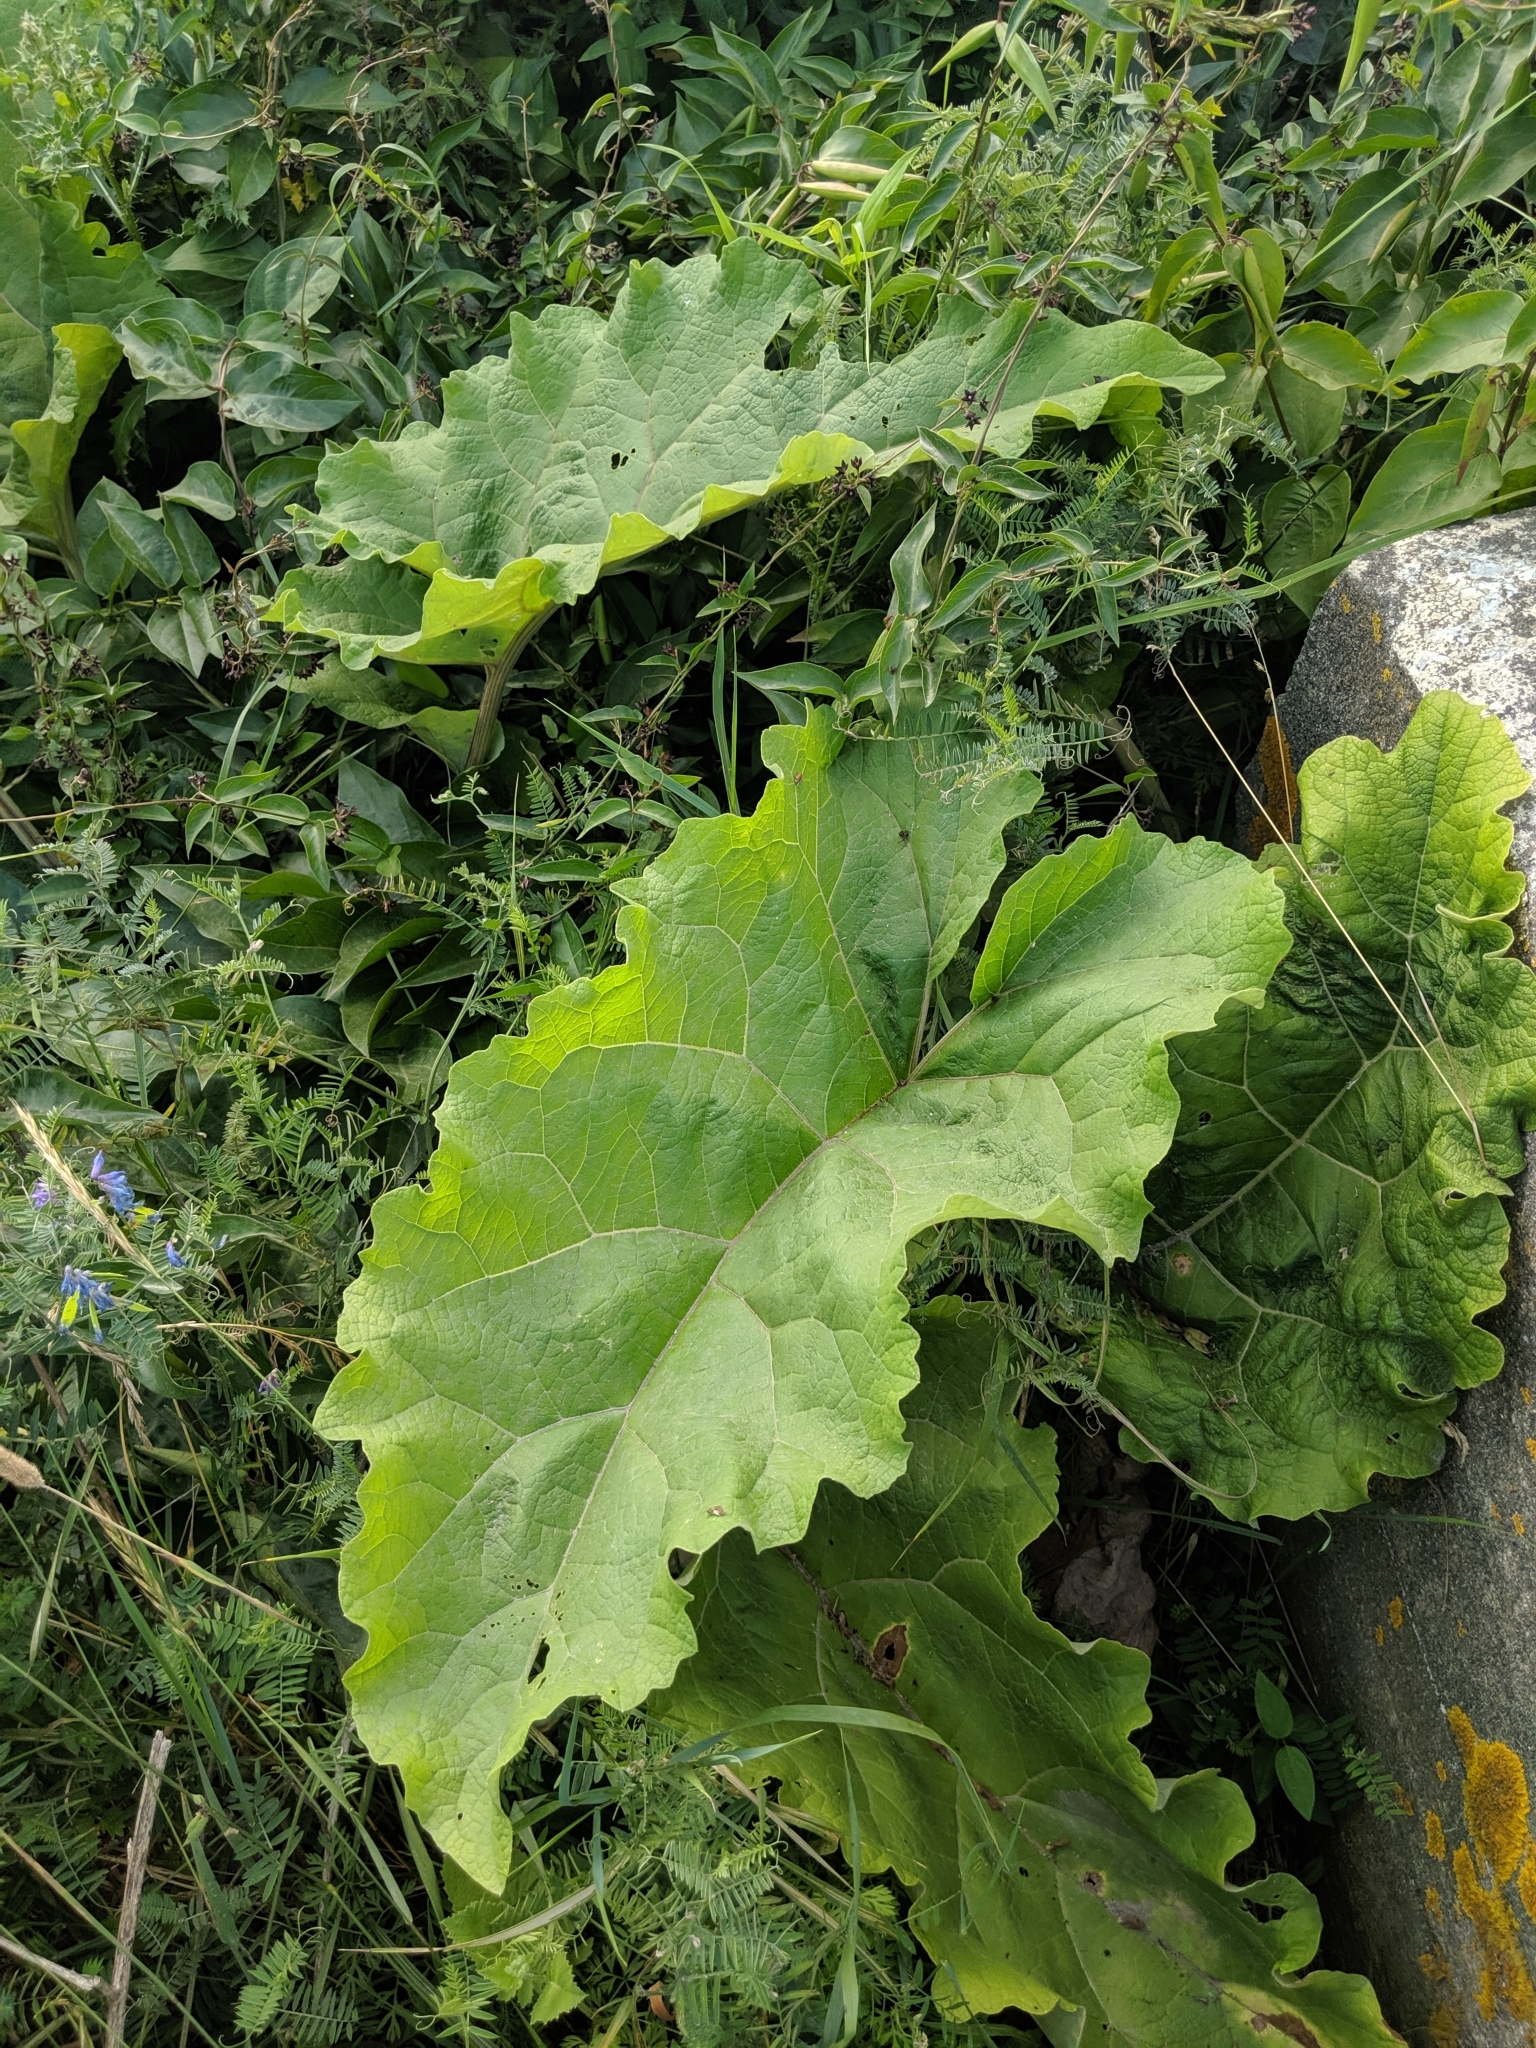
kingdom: Plantae
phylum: Tracheophyta
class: Magnoliopsida
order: Asterales
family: Asteraceae
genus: Arctium
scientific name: Arctium
